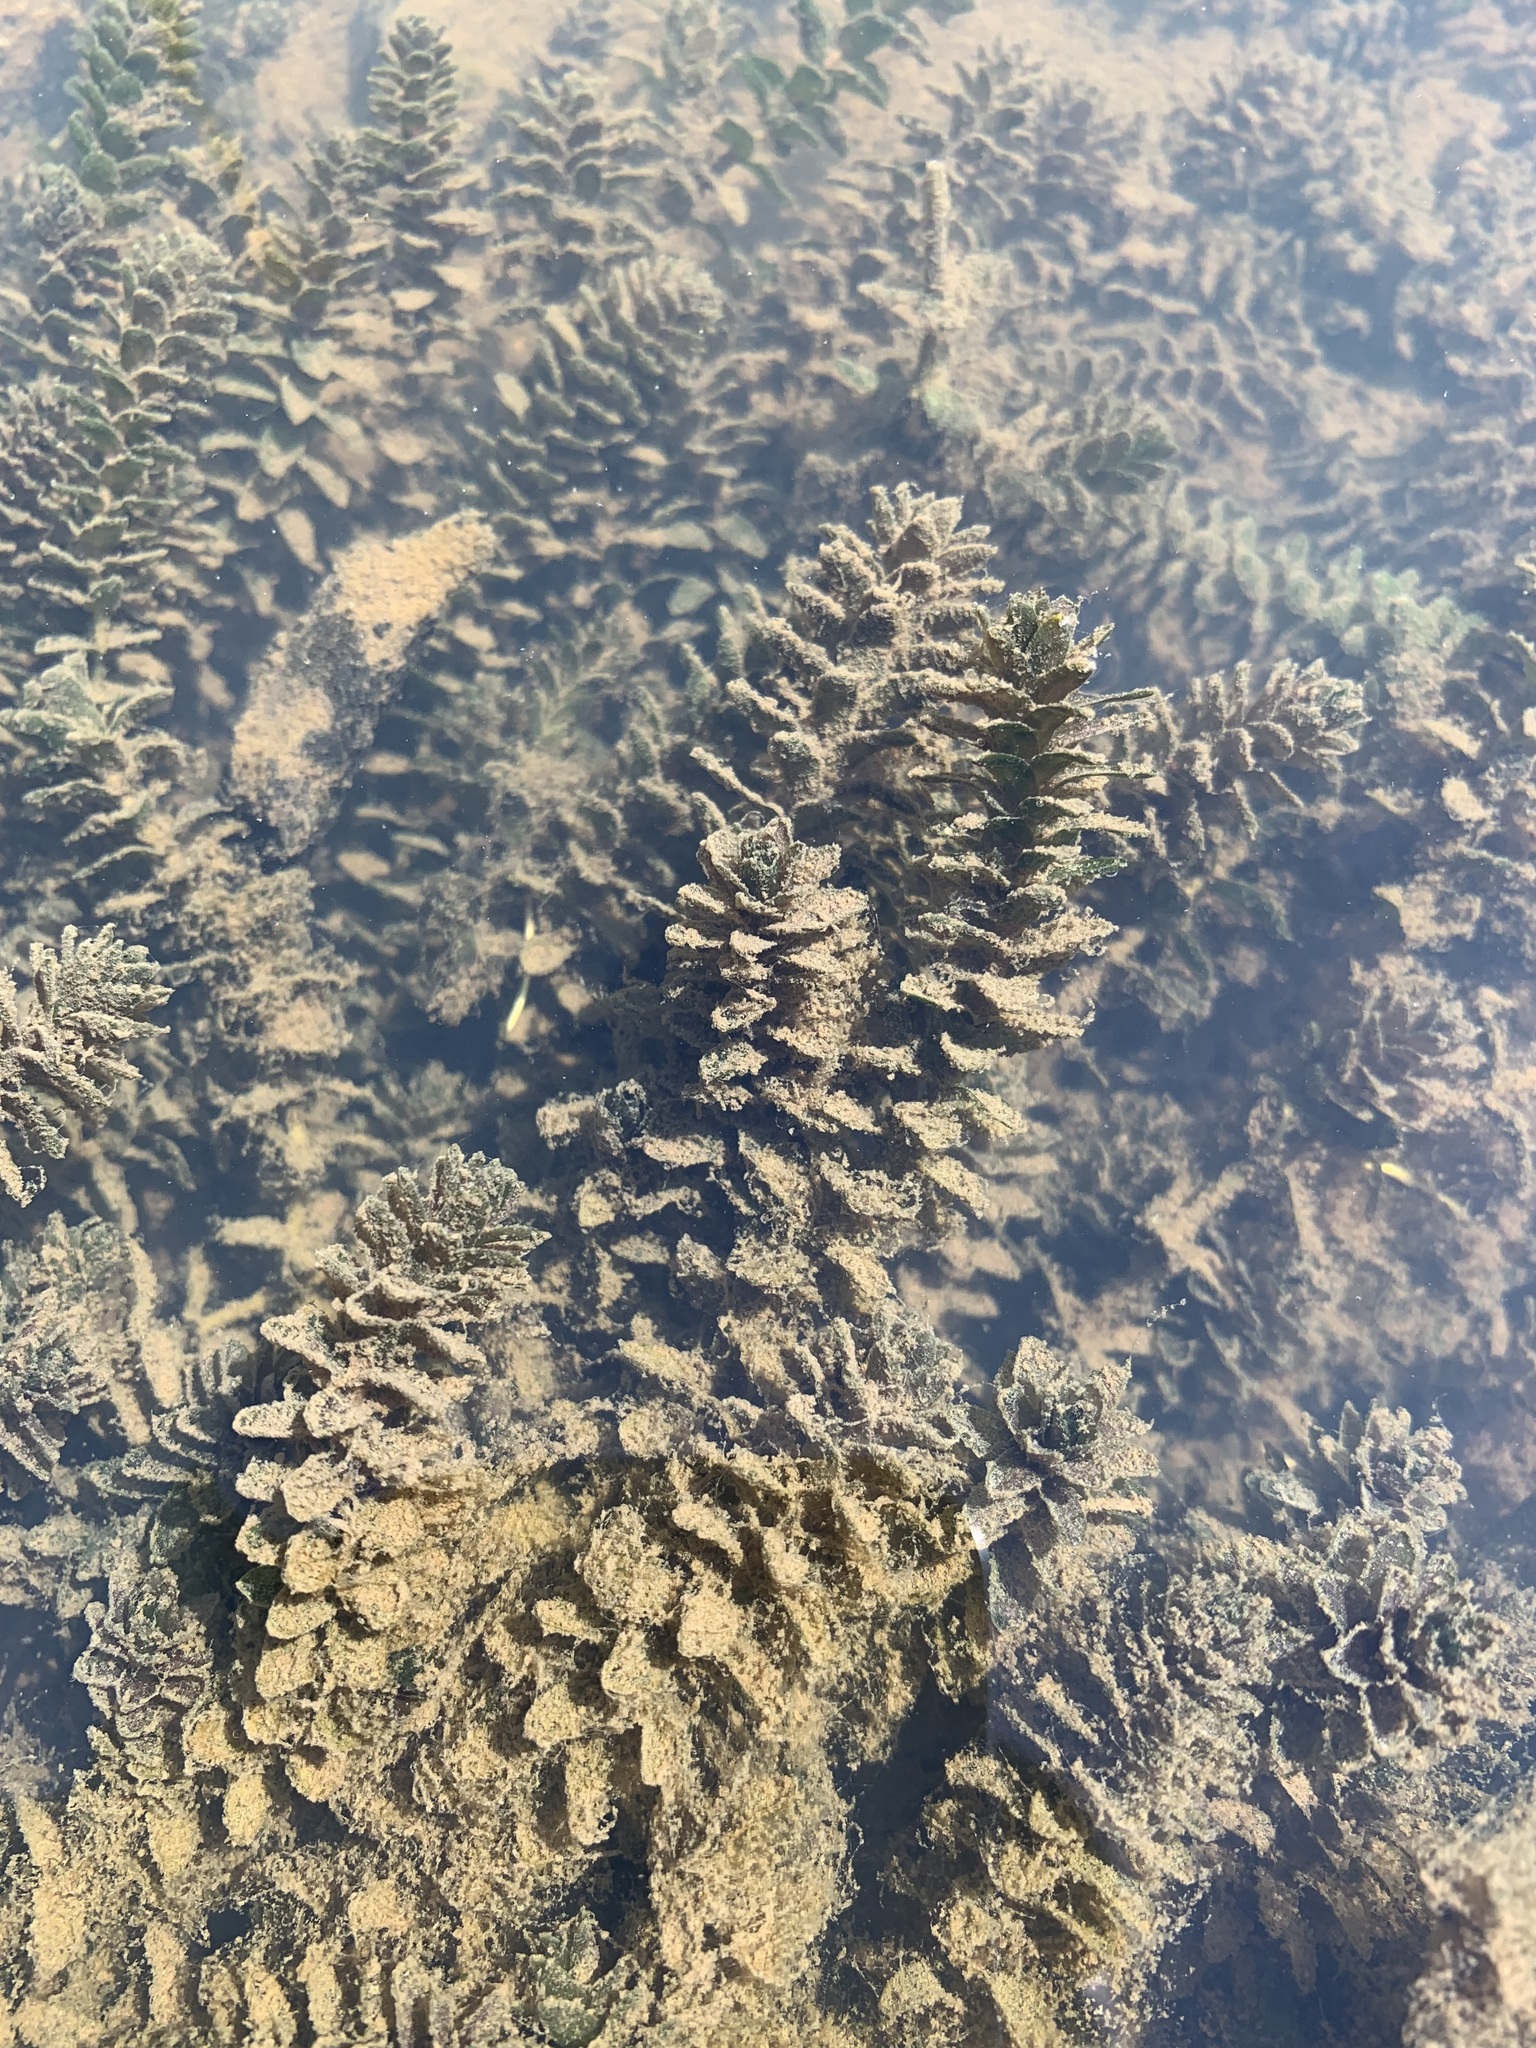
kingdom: Plantae
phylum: Tracheophyta
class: Liliopsida
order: Alismatales
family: Hydrocharitaceae
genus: Elodea
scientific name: Elodea canadensis
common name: Canadian waterweed
